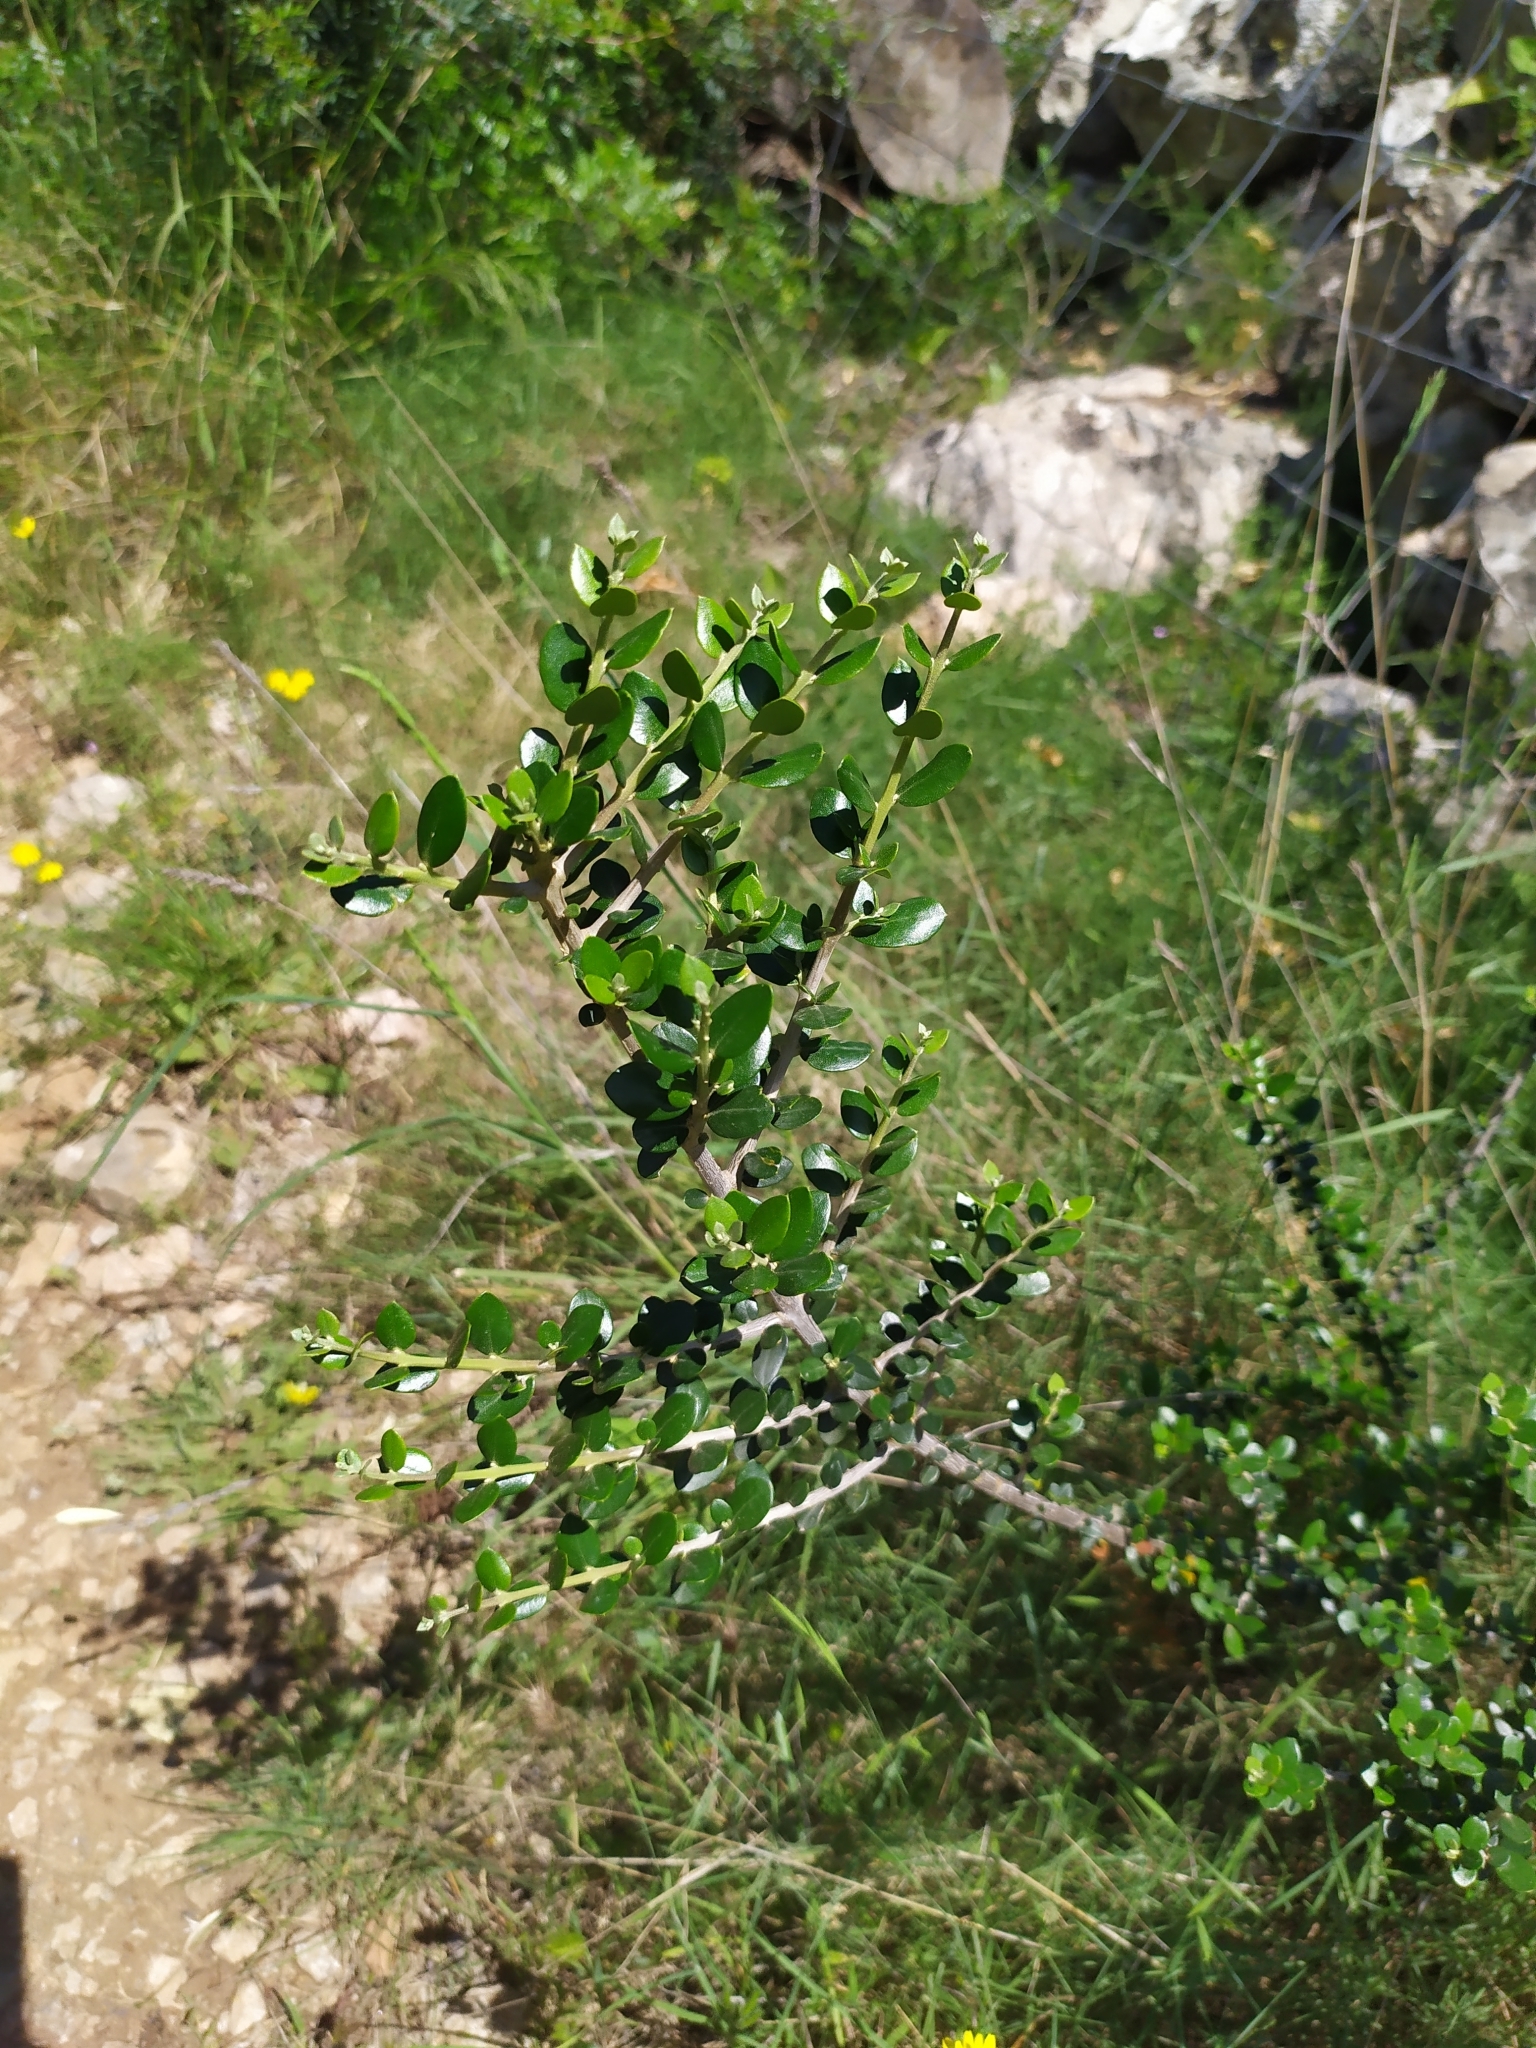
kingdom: Plantae
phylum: Tracheophyta
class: Magnoliopsida
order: Lamiales
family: Oleaceae
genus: Olea
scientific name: Olea europaea
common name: Olive
